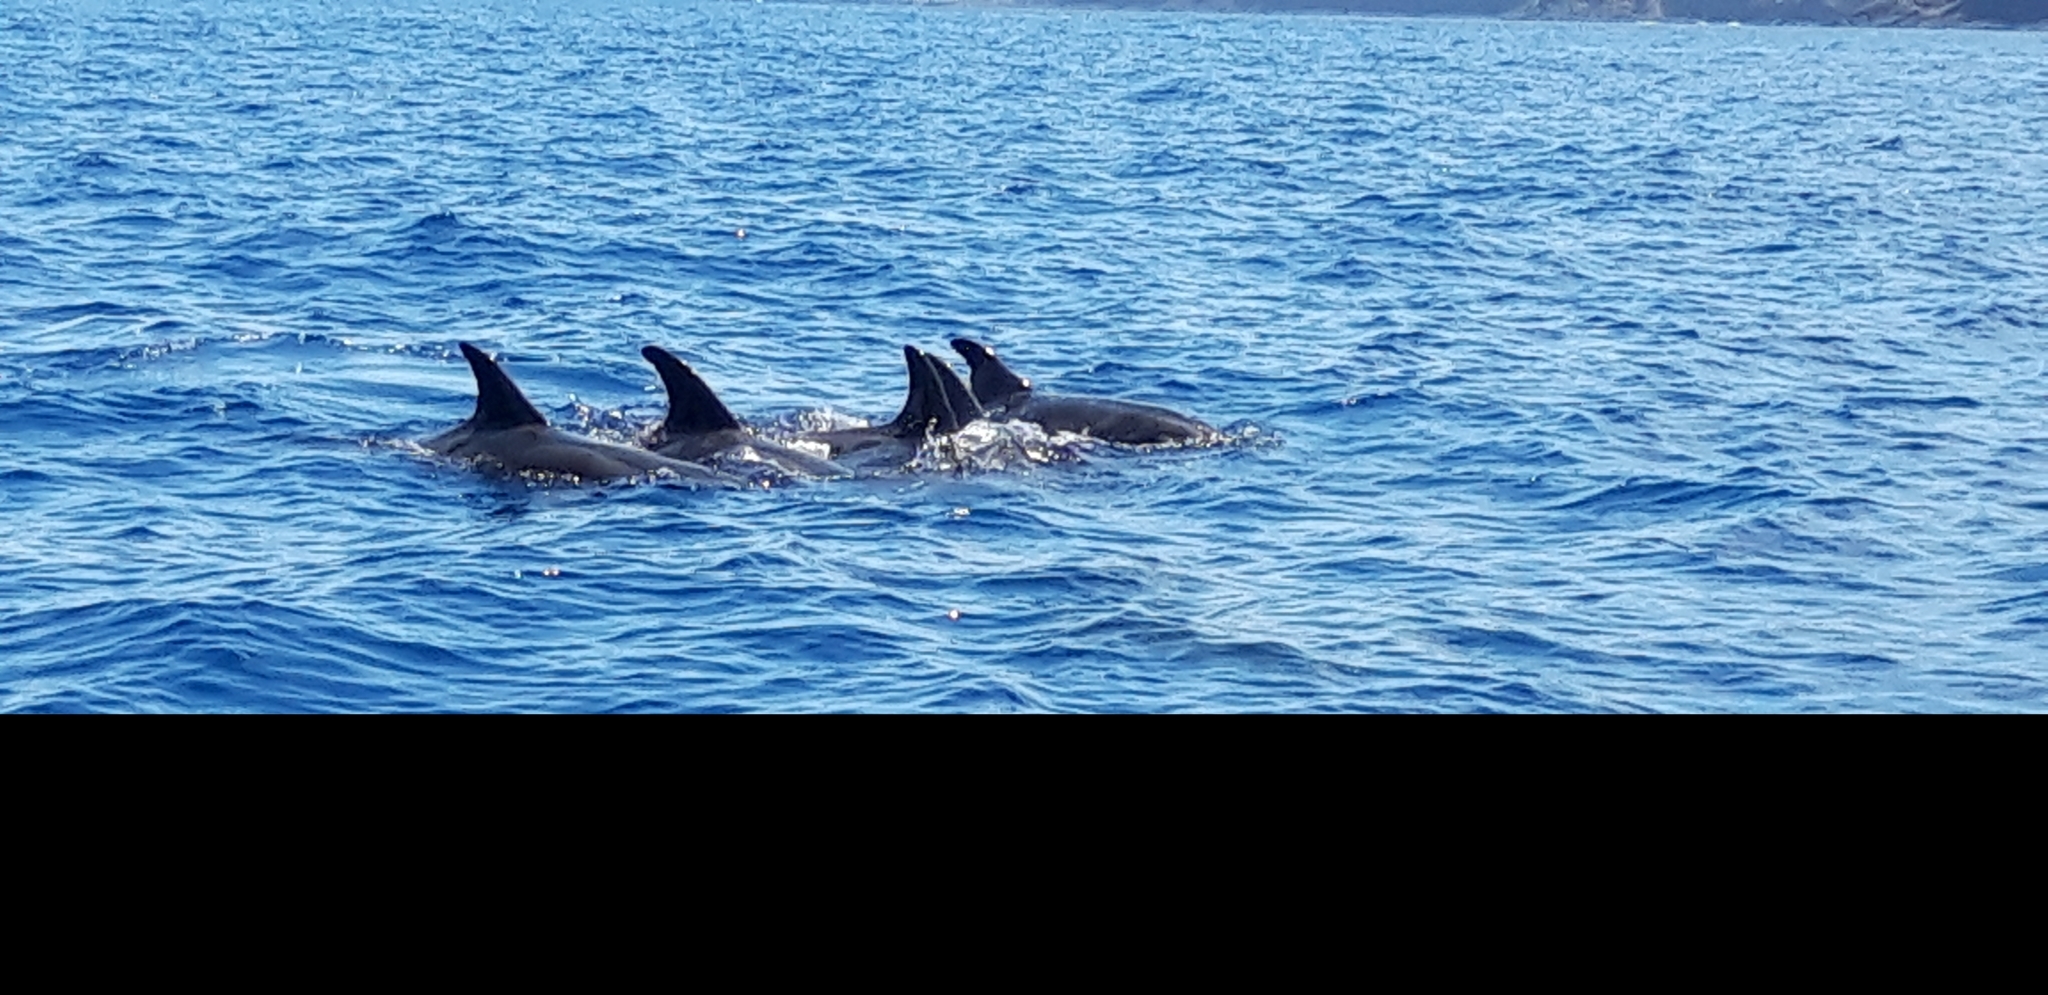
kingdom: Animalia
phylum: Chordata
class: Mammalia
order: Cetacea
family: Delphinidae
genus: Steno
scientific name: Steno bredanensis
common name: Rough-toothed dolphin
